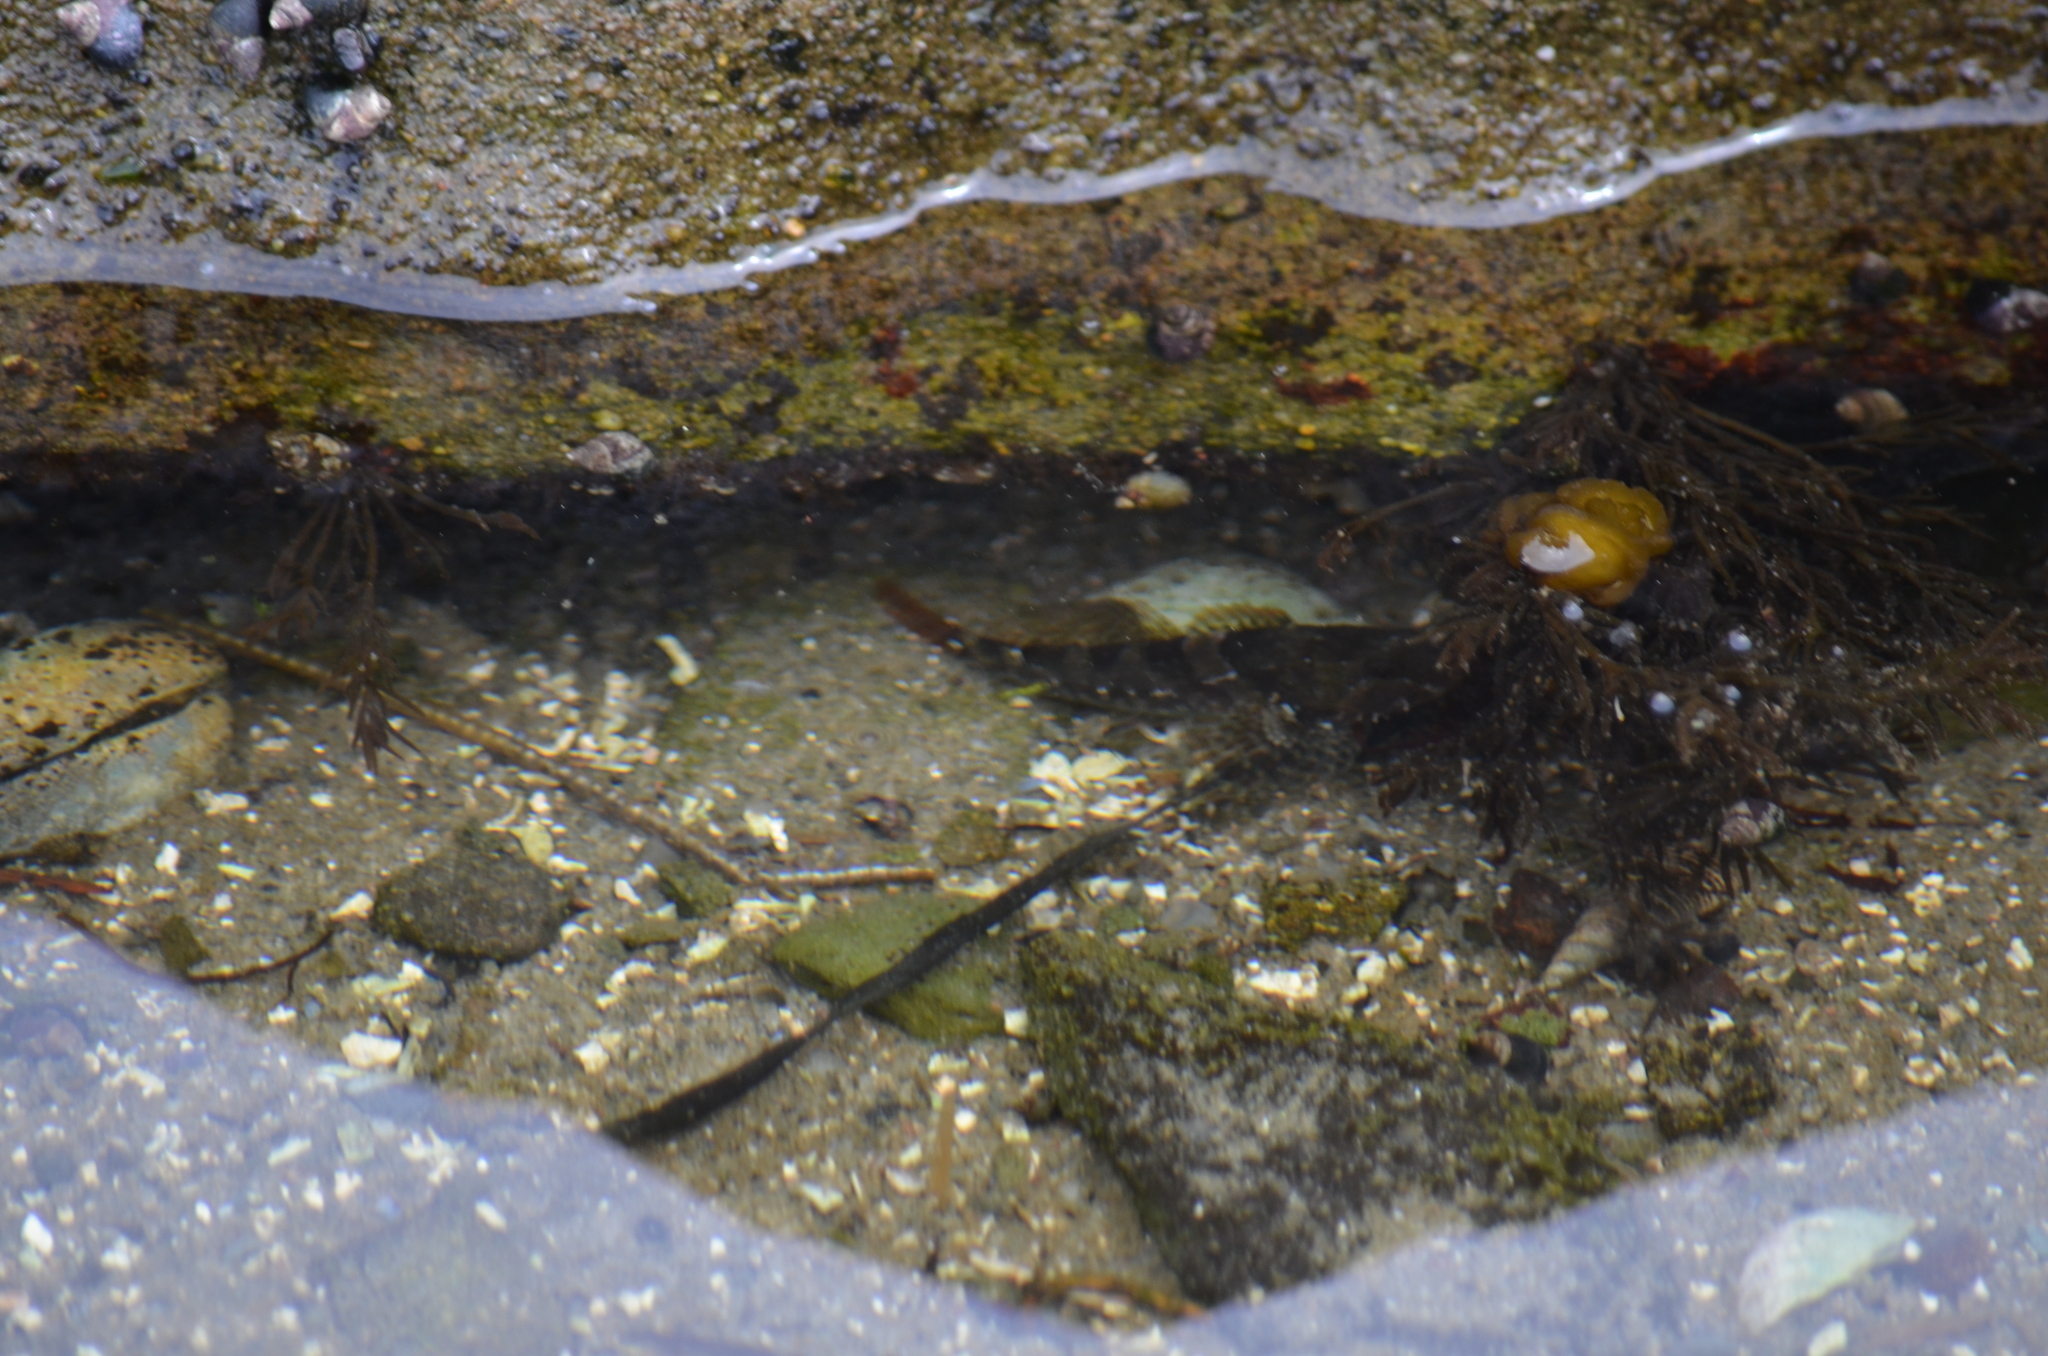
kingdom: Animalia
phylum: Chordata
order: Scorpaeniformes
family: Cottidae
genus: Oligocottus
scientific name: Oligocottus maculosus
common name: Tidepool sculpin
